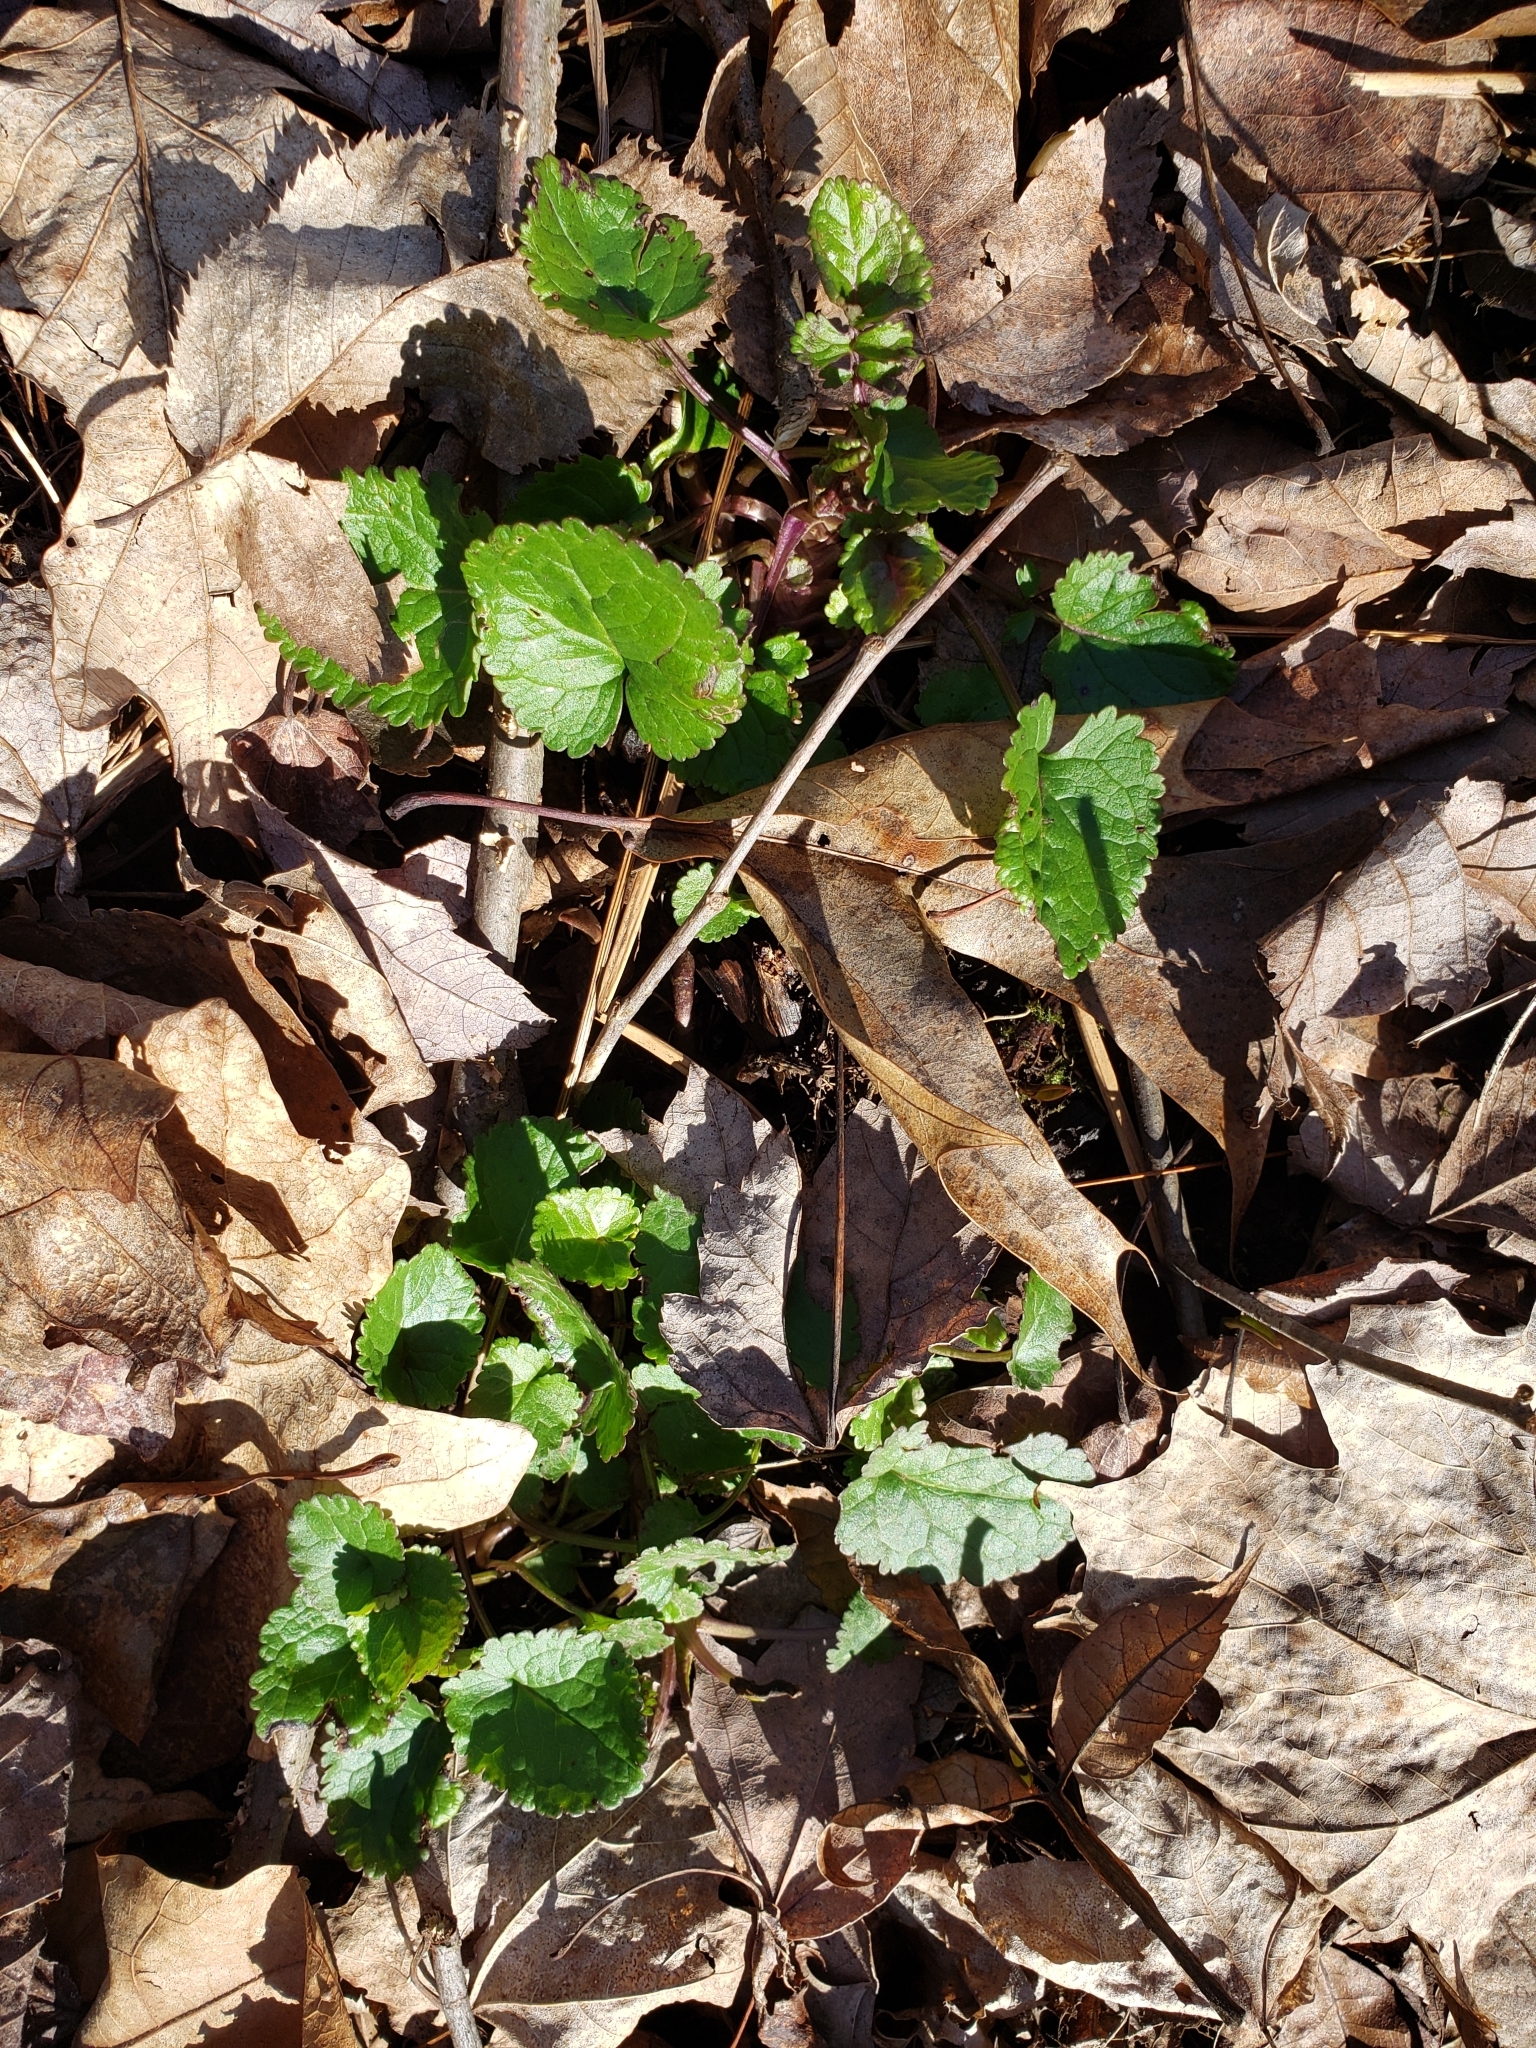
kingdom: Plantae
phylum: Tracheophyta
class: Magnoliopsida
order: Asterales
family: Asteraceae
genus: Packera
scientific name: Packera aurea
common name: Golden groundsel
